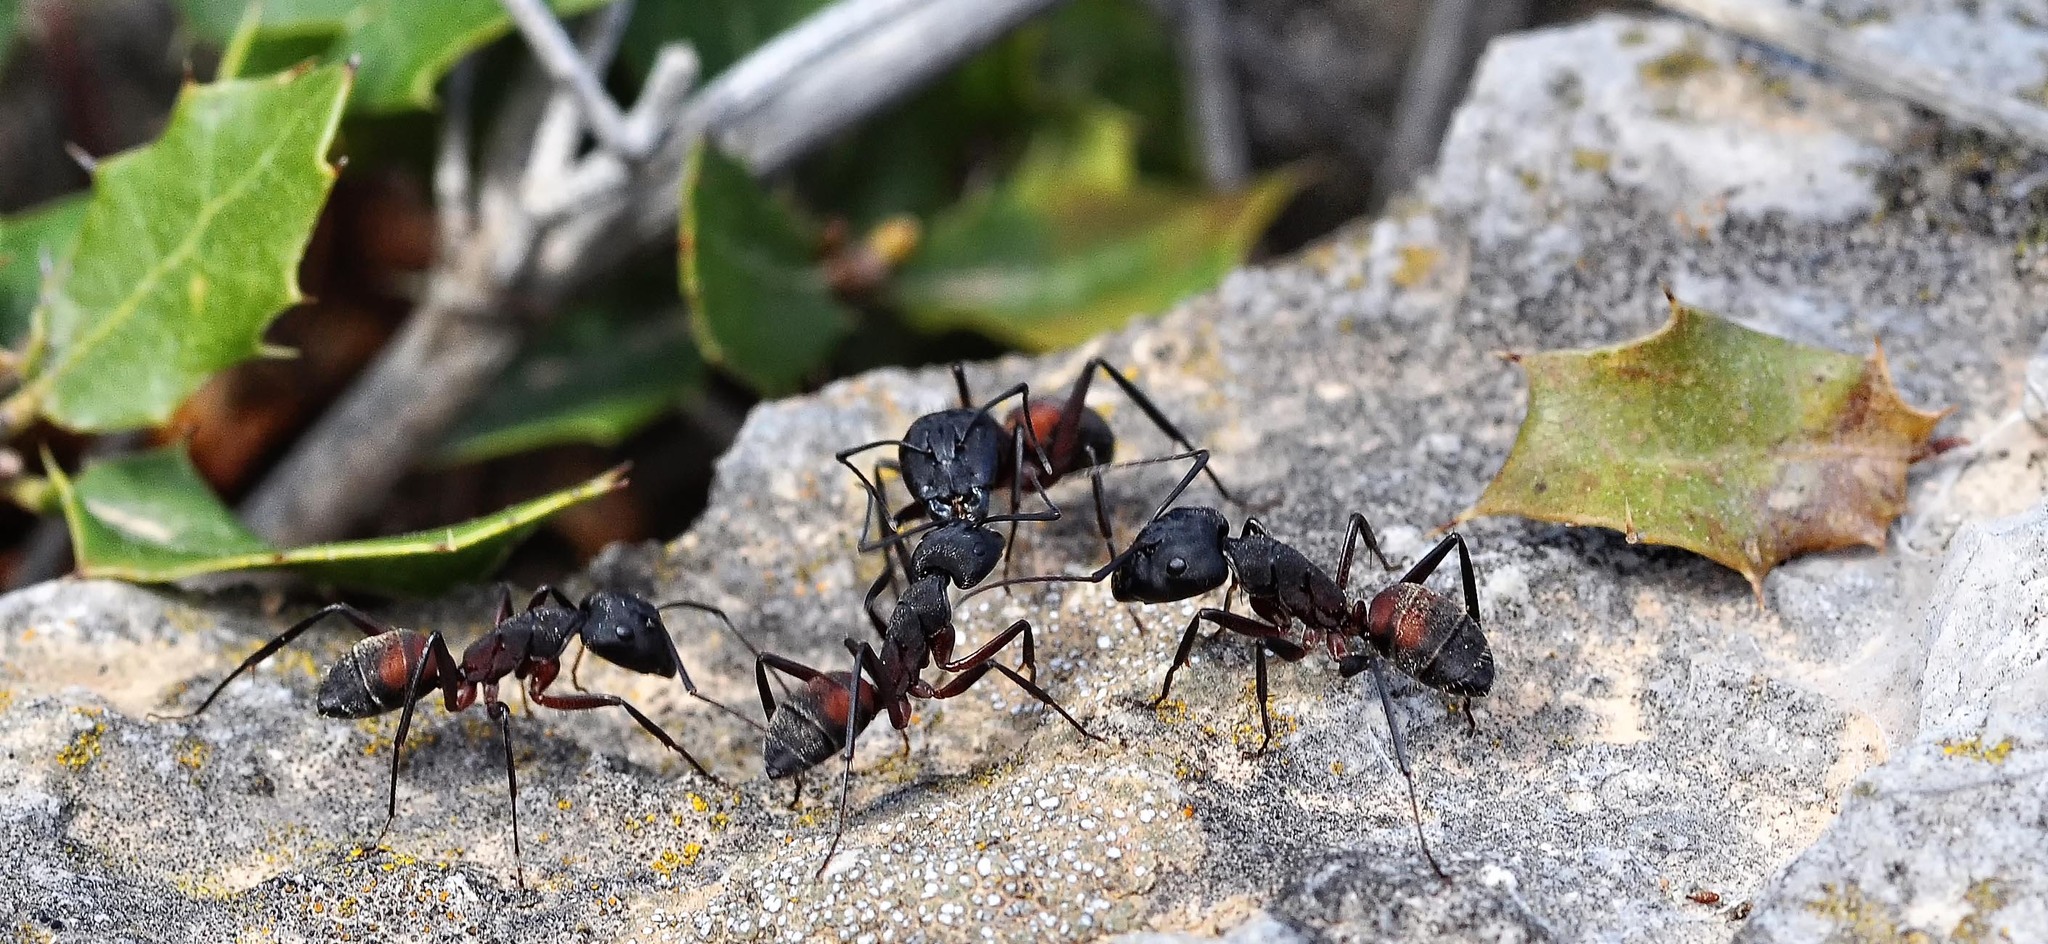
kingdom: Animalia
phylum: Arthropoda
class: Insecta
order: Hymenoptera
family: Formicidae
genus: Camponotus
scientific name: Camponotus cruentatus
